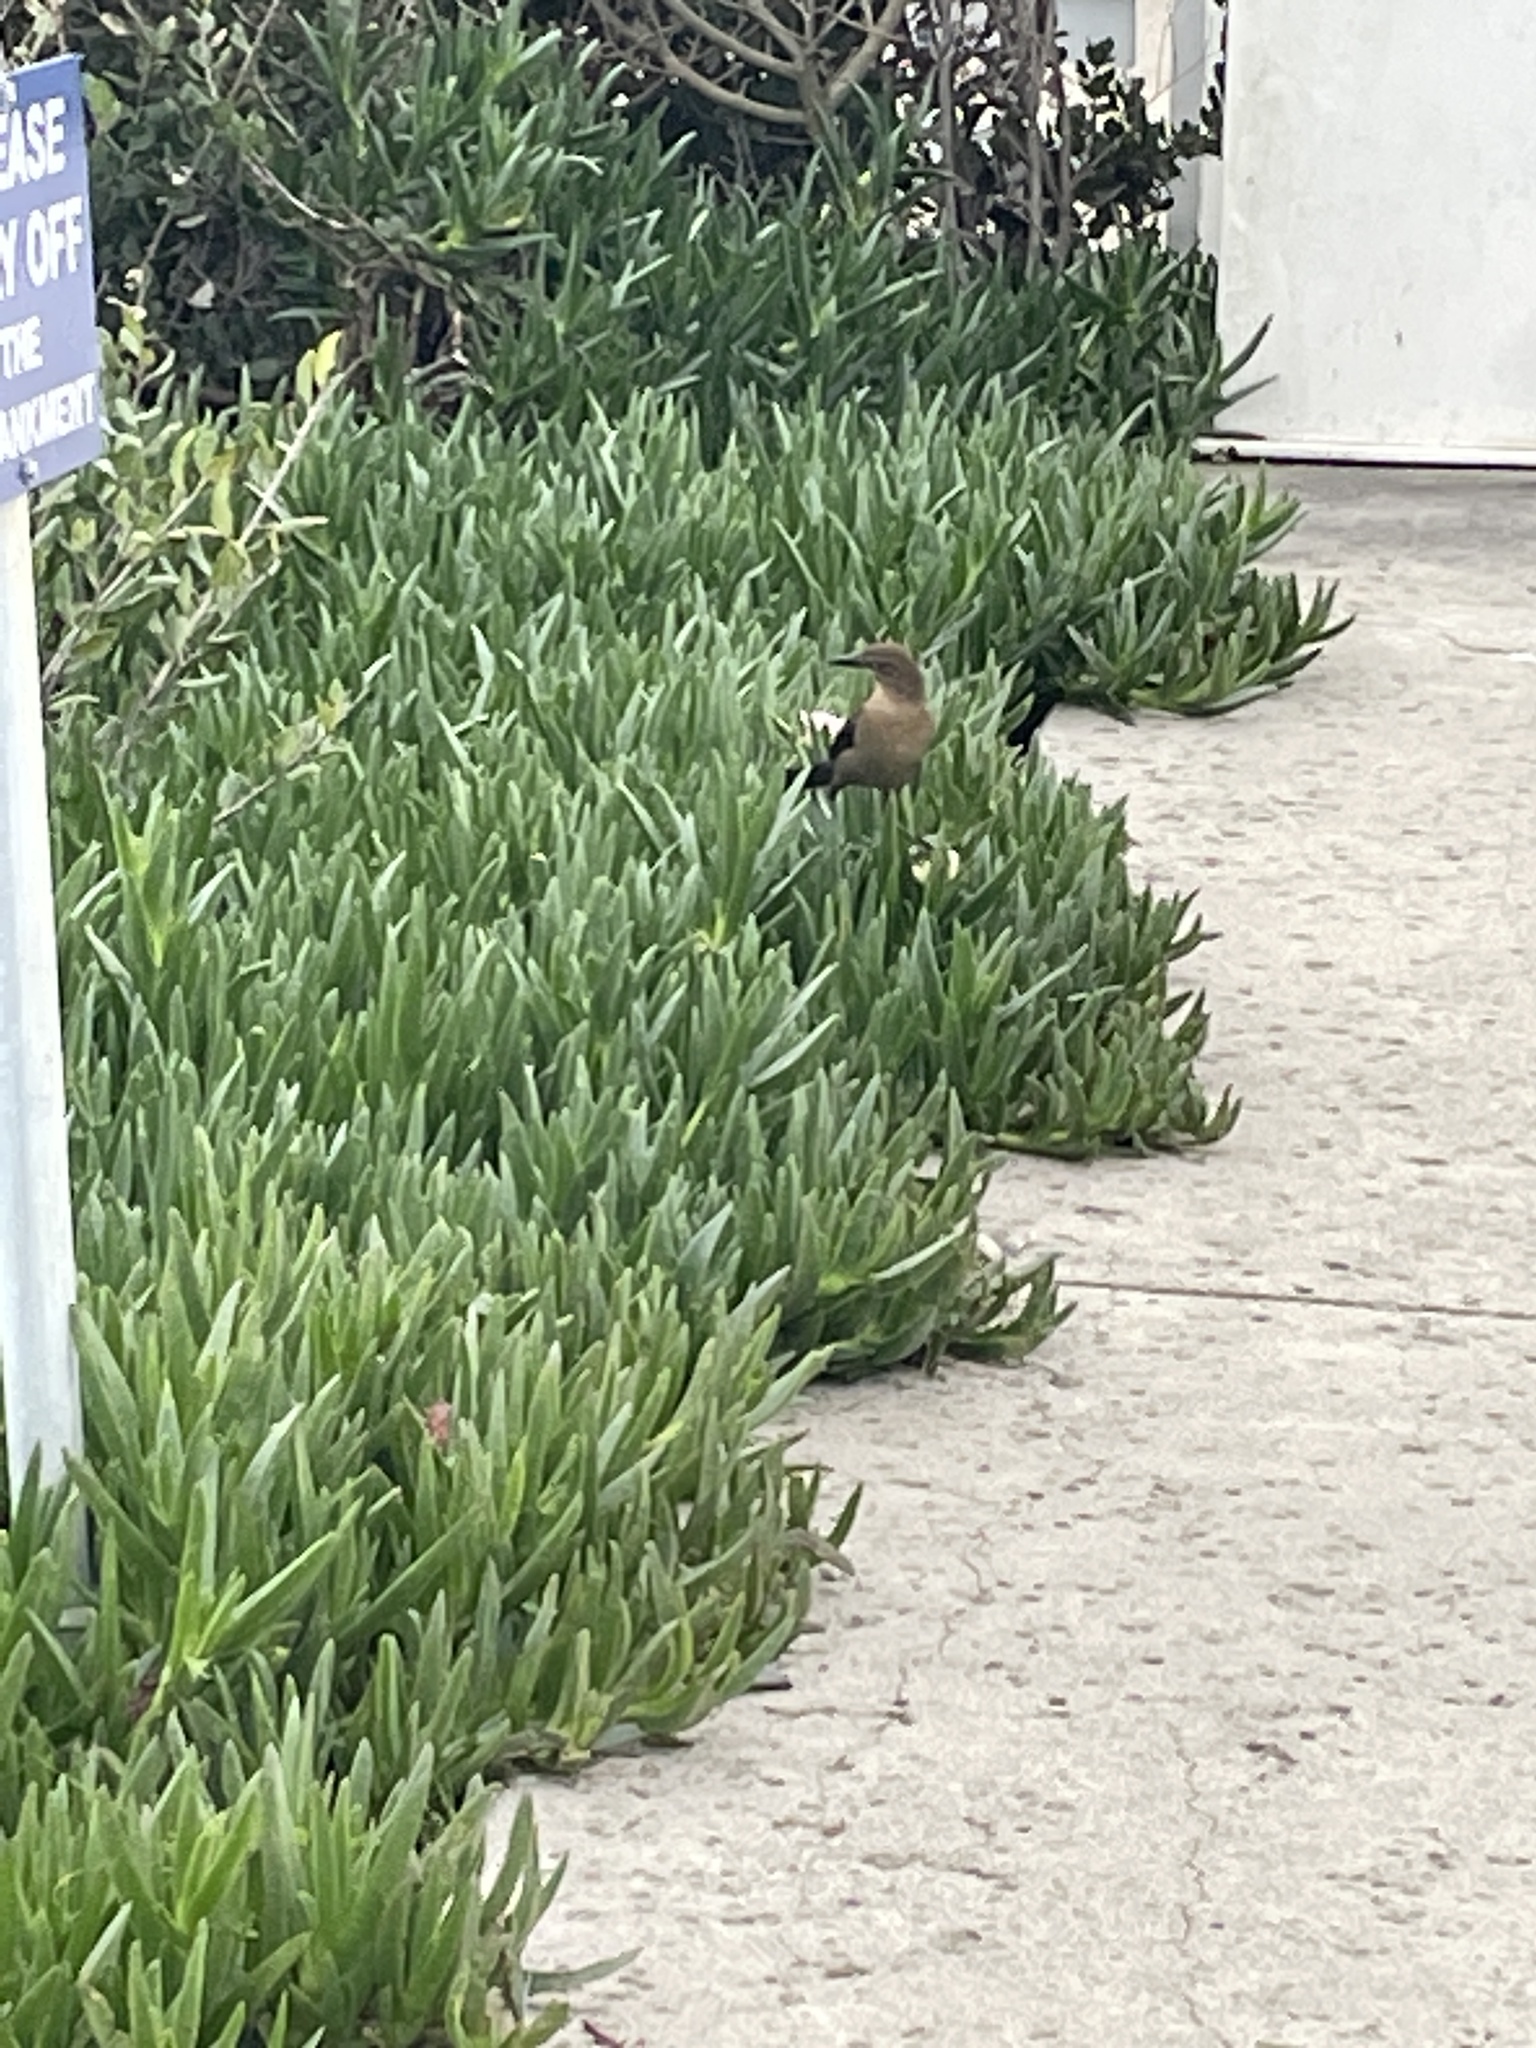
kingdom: Animalia
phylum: Chordata
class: Aves
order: Passeriformes
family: Icteridae
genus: Quiscalus
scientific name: Quiscalus mexicanus
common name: Great-tailed grackle
